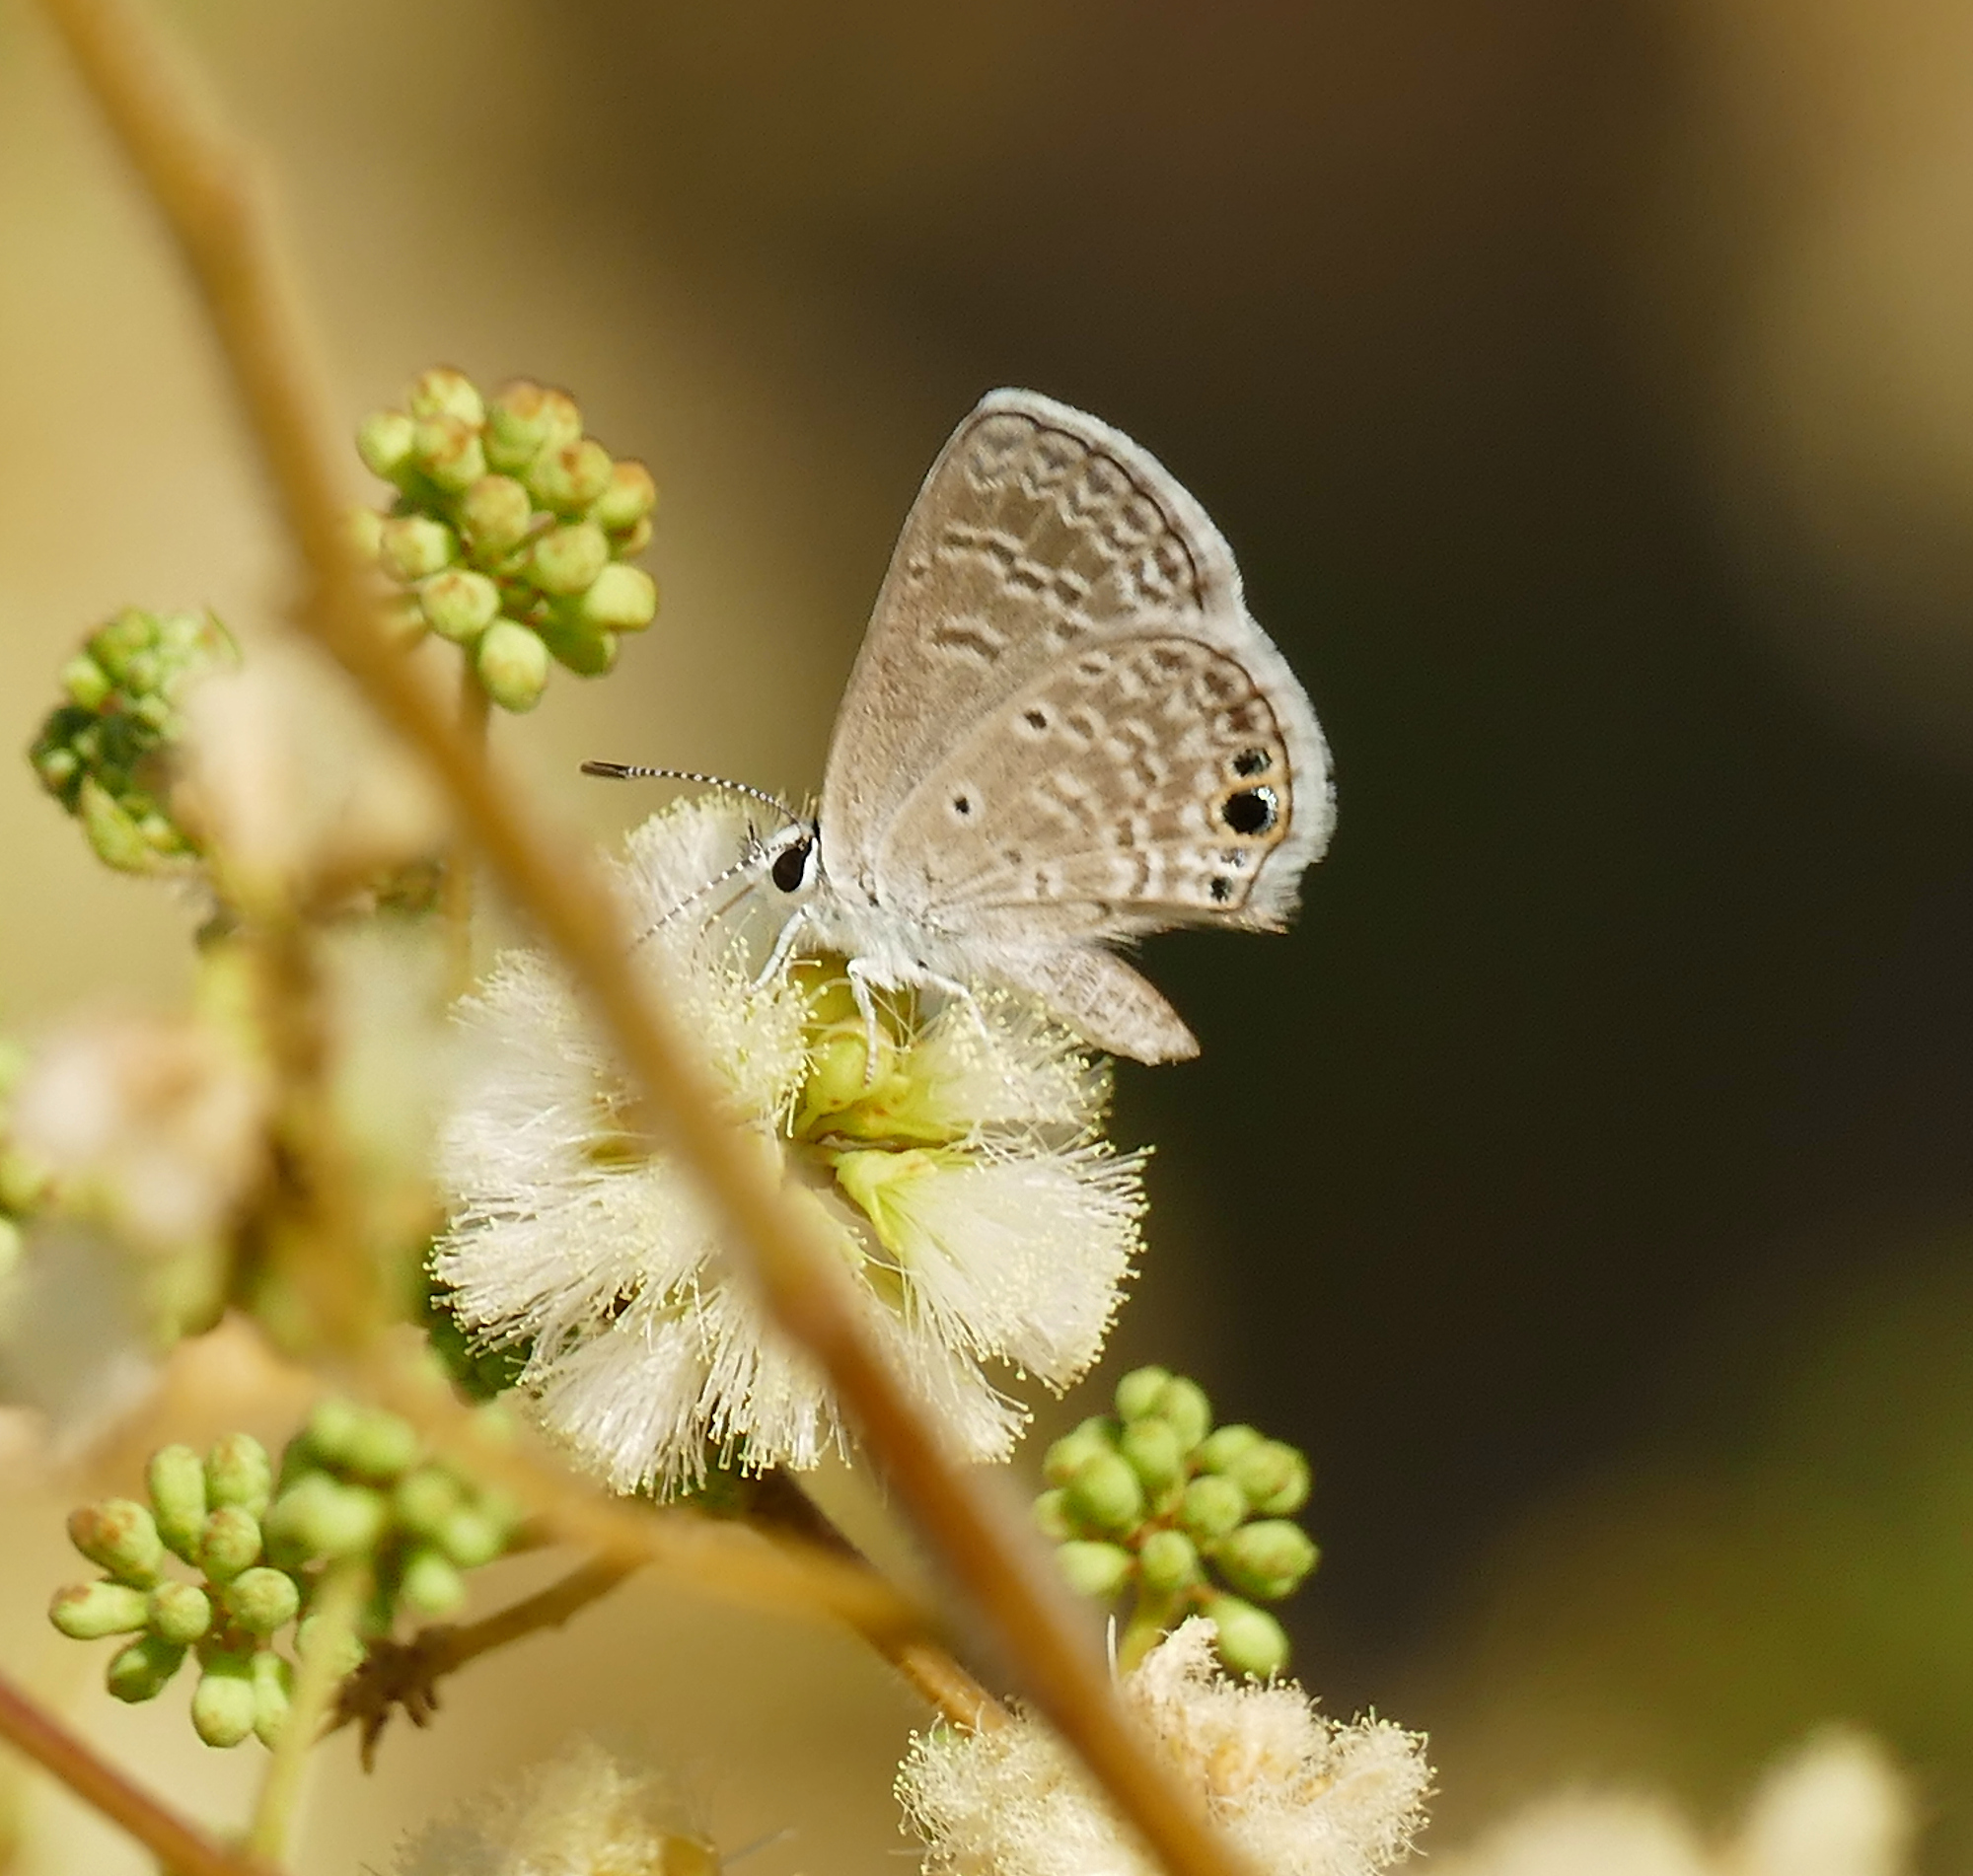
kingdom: Animalia
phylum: Arthropoda
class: Insecta
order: Lepidoptera
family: Lycaenidae
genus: Hemiargus
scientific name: Hemiargus ceraunus
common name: Ceraunus blue
